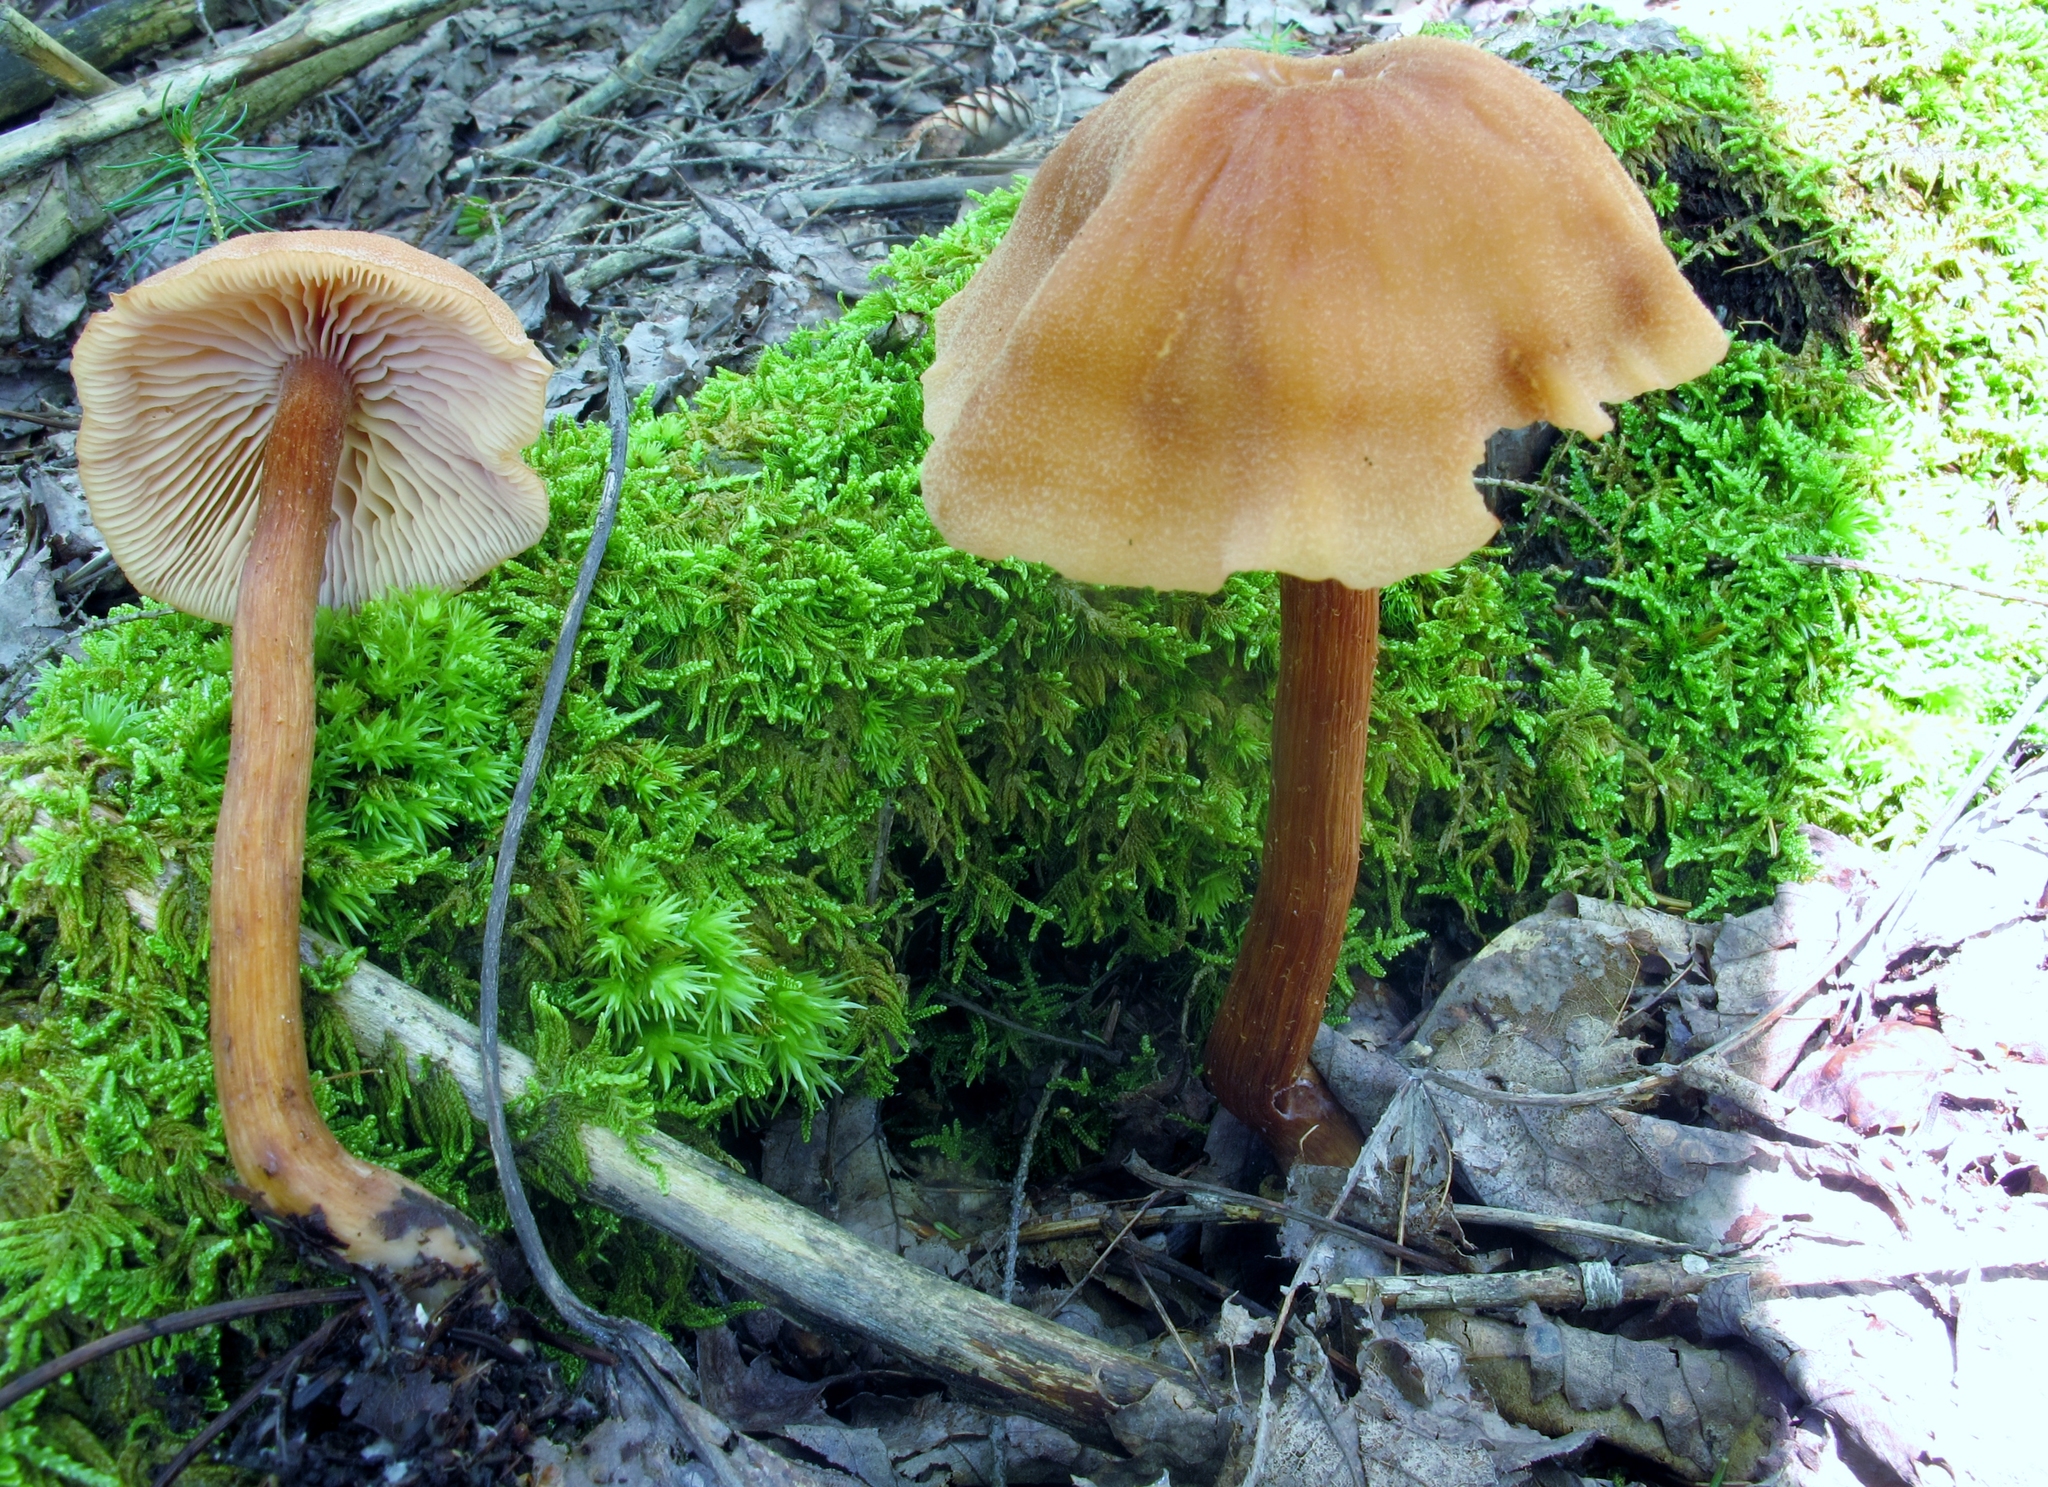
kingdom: Fungi
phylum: Basidiomycota
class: Agaricomycetes
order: Agaricales
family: Hydnangiaceae
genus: Laccaria
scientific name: Laccaria proxima
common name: Scurfy deceiver
